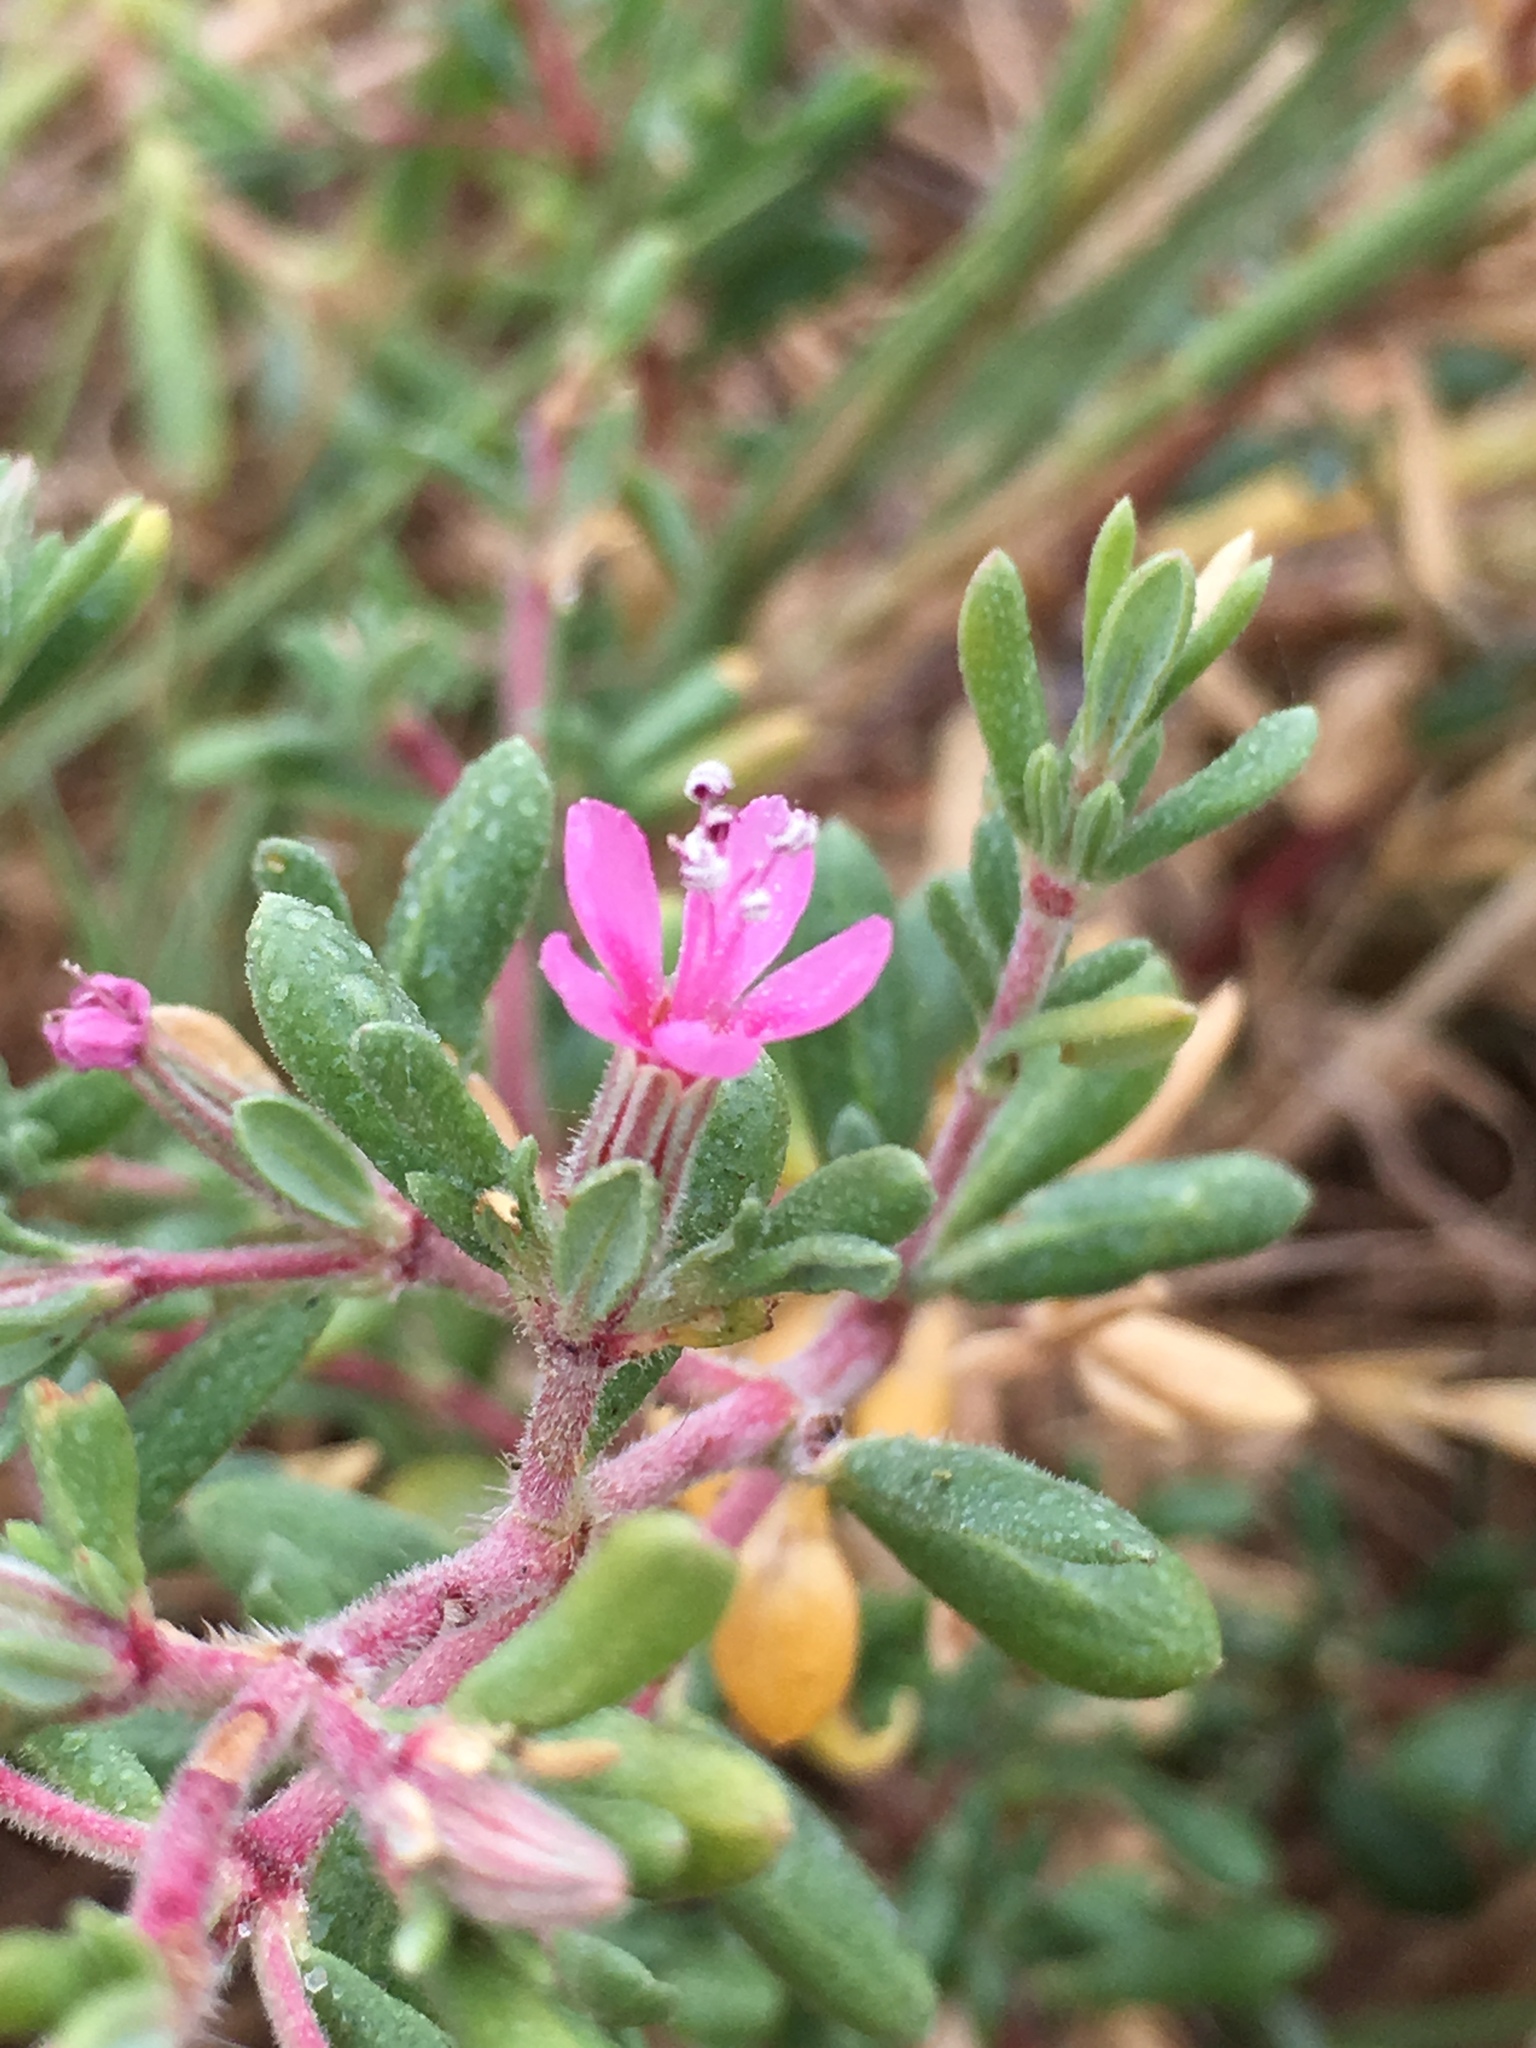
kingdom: Plantae
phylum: Tracheophyta
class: Magnoliopsida
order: Caryophyllales
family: Frankeniaceae
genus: Frankenia
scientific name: Frankenia salina
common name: Alkali seaheath
